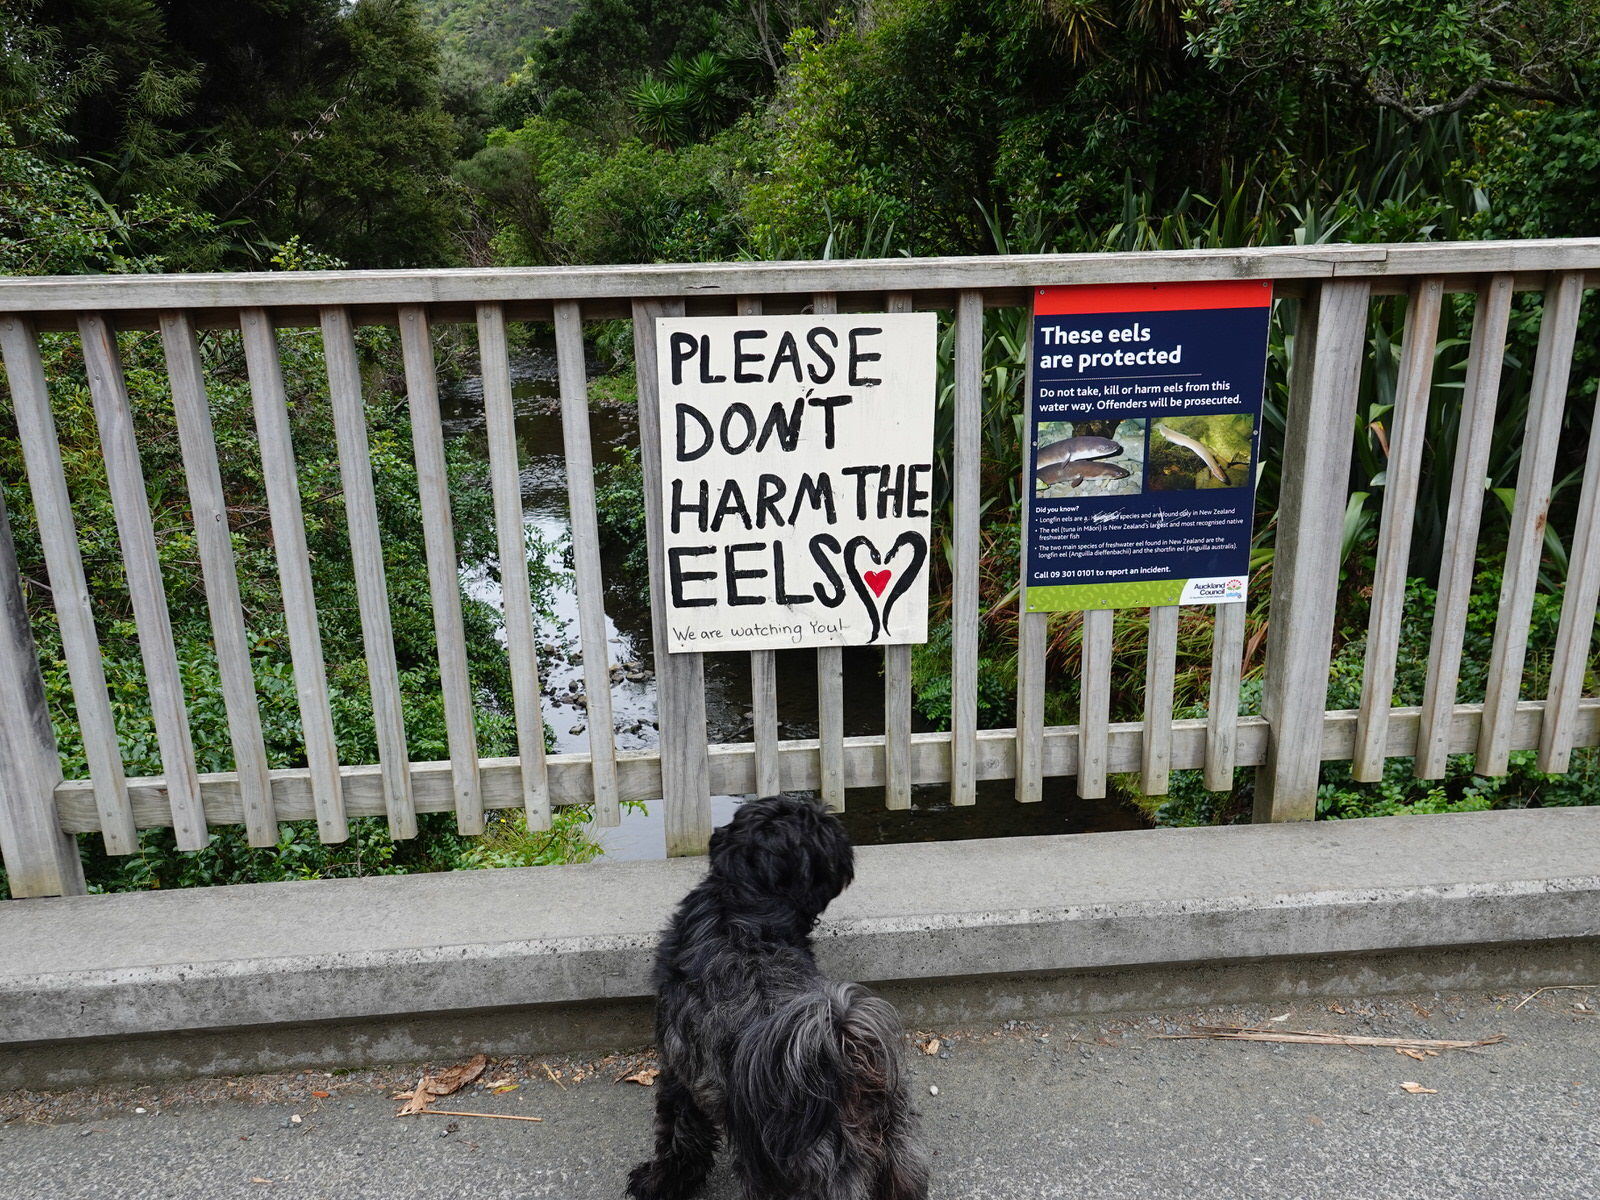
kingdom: Animalia
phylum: Chordata
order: Anguilliformes
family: Anguillidae
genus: Anguilla
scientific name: Anguilla dieffenbachii
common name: New zealand longfin eel
